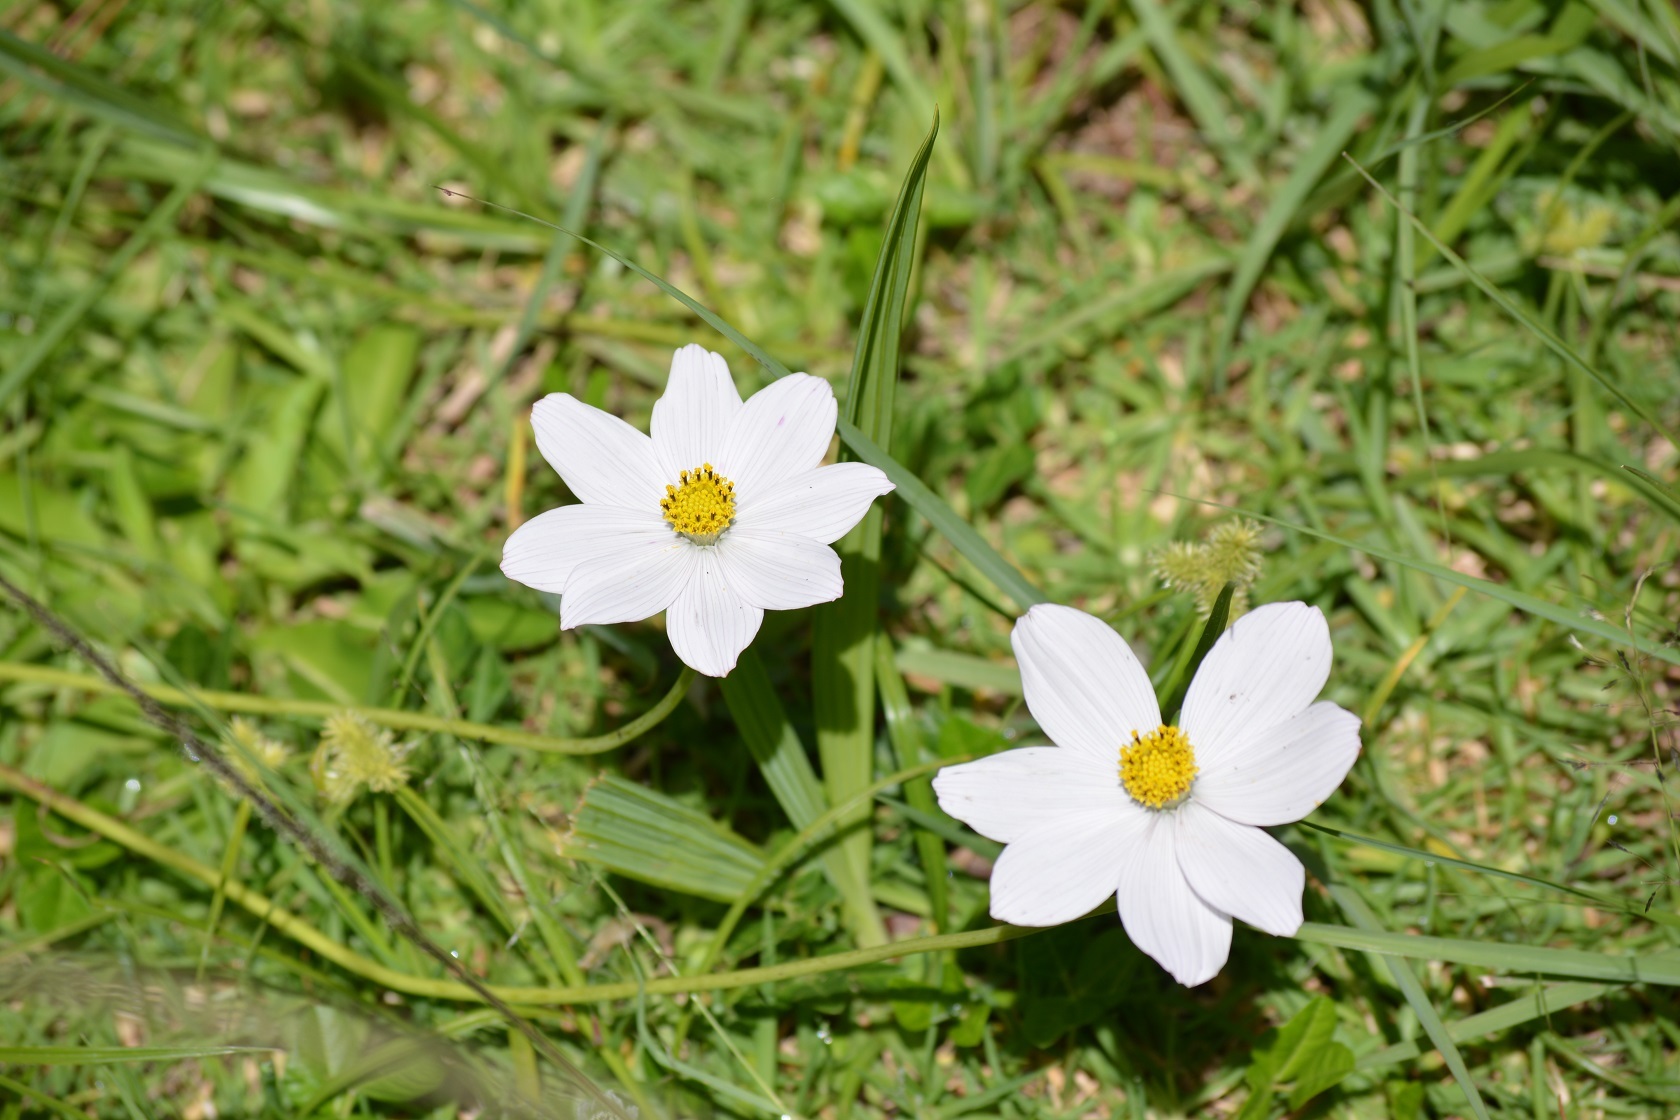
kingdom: Plantae
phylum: Tracheophyta
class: Magnoliopsida
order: Asterales
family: Asteraceae
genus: Cosmos
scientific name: Cosmos diversifolius
